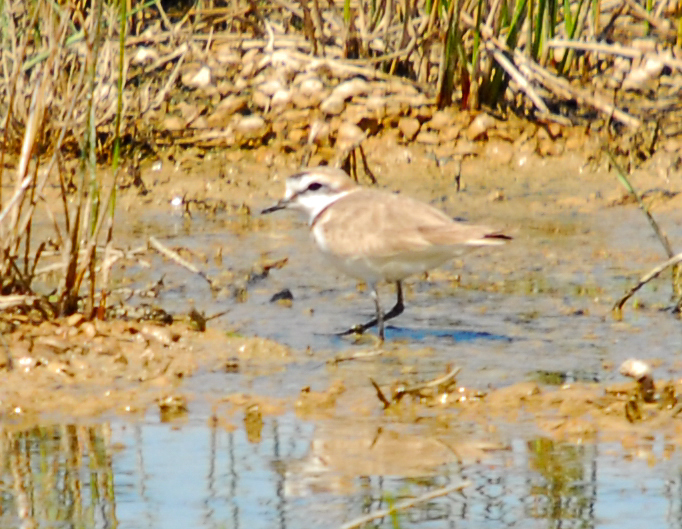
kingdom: Animalia
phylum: Chordata
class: Aves
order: Charadriiformes
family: Charadriidae
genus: Charadrius
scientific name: Charadrius alexandrinus
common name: Kentish plover
